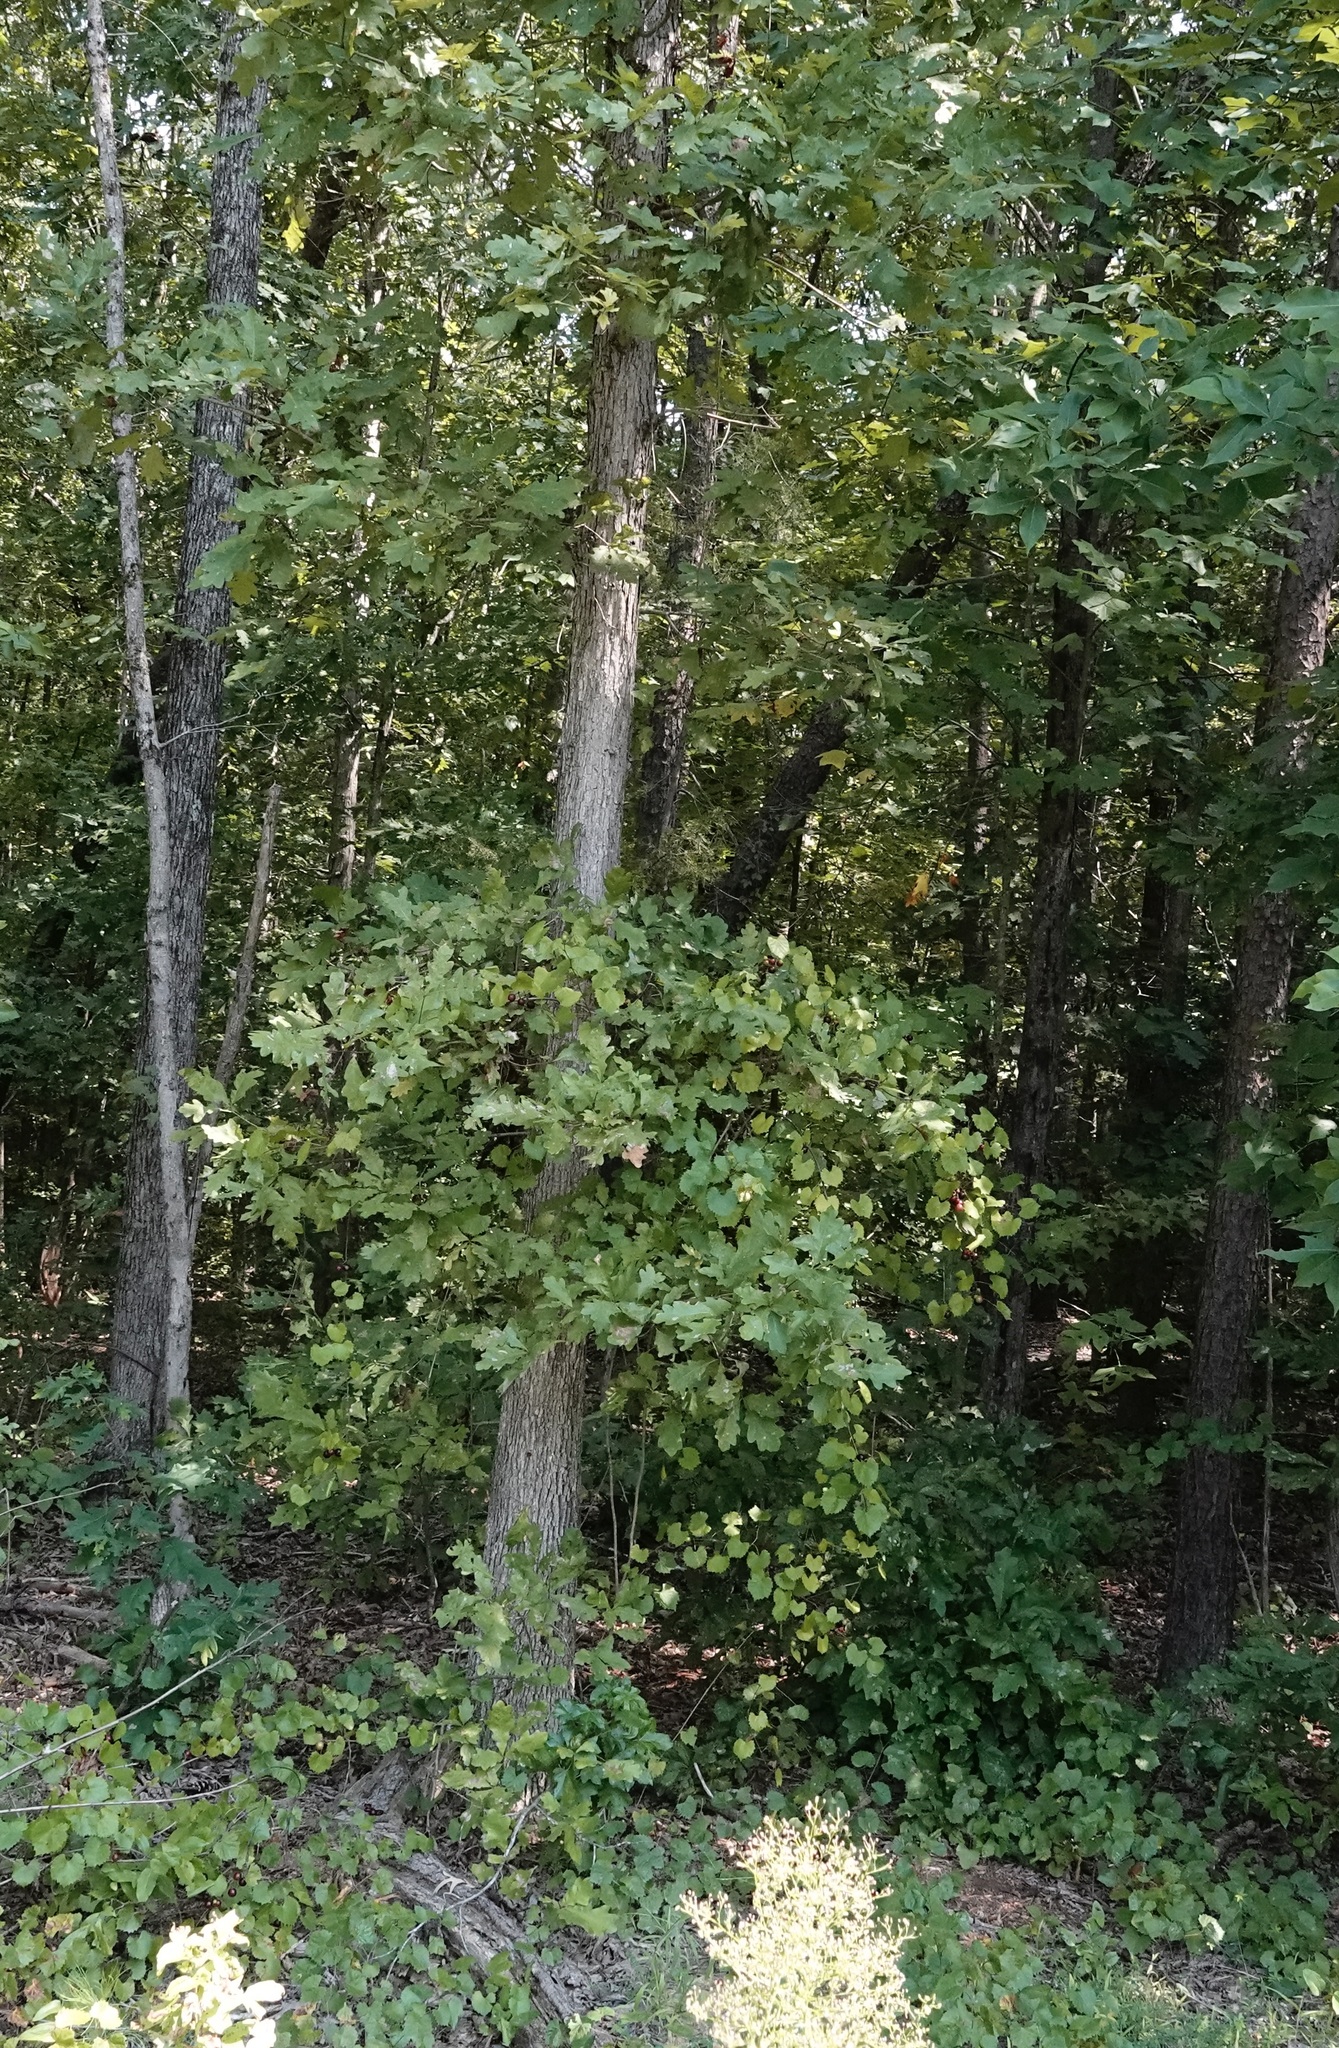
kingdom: Plantae
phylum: Tracheophyta
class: Magnoliopsida
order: Vitales
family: Vitaceae
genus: Vitis
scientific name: Vitis rotundifolia
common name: Muscadine grape
